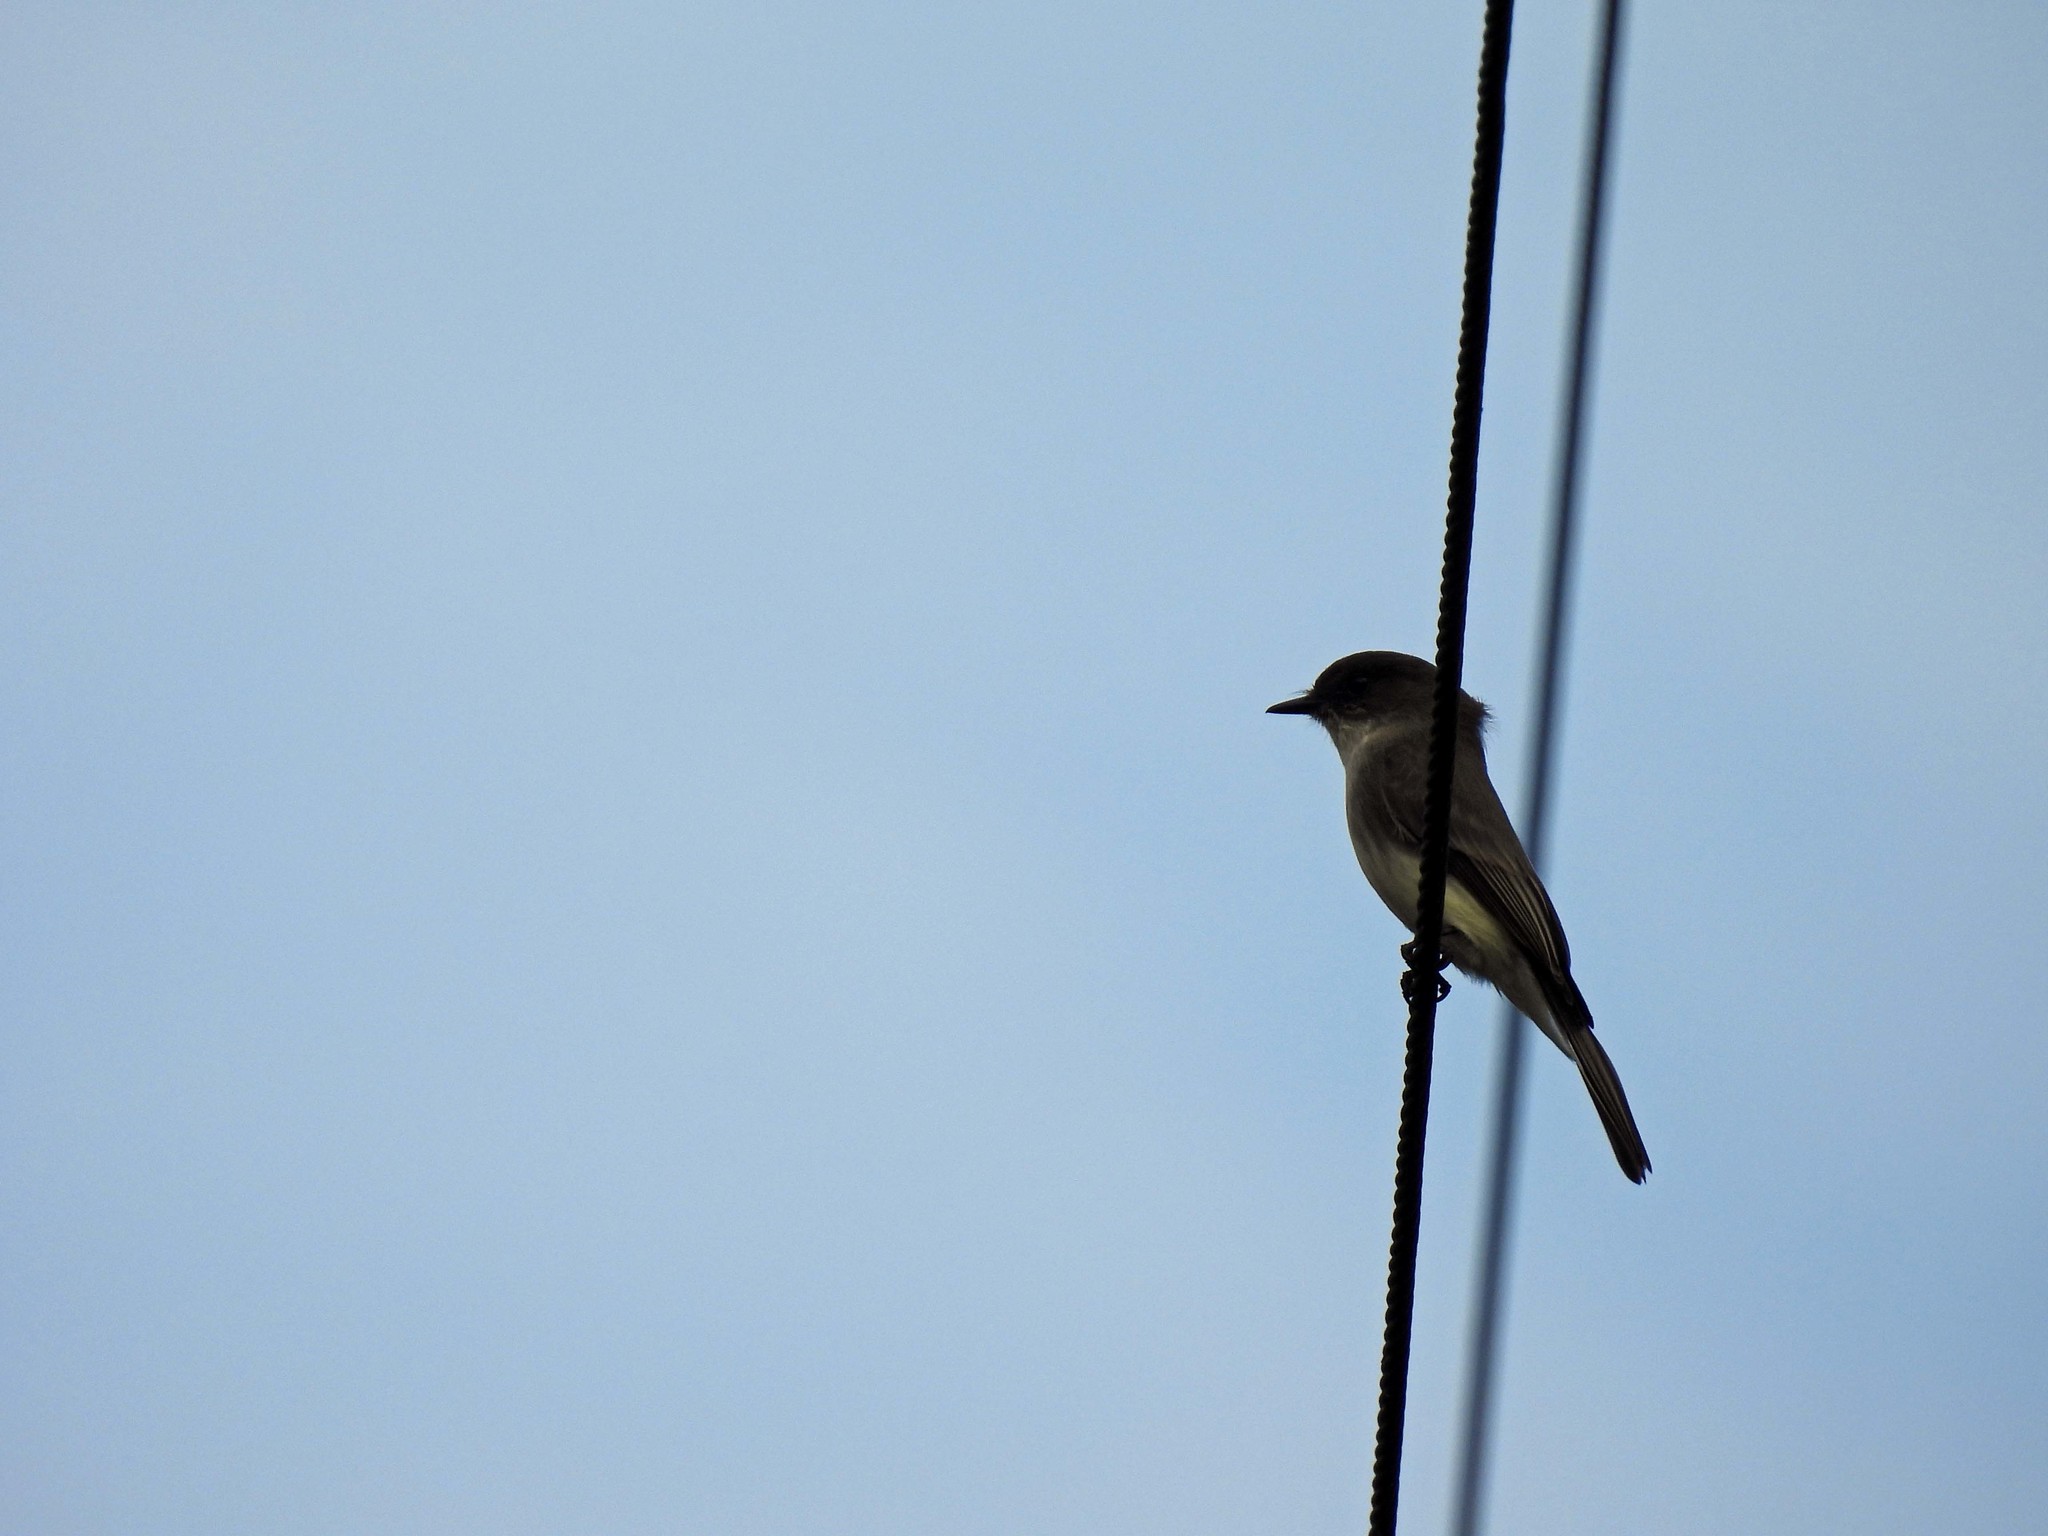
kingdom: Animalia
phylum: Chordata
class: Aves
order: Passeriformes
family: Tyrannidae
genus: Sayornis
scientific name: Sayornis phoebe
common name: Eastern phoebe
